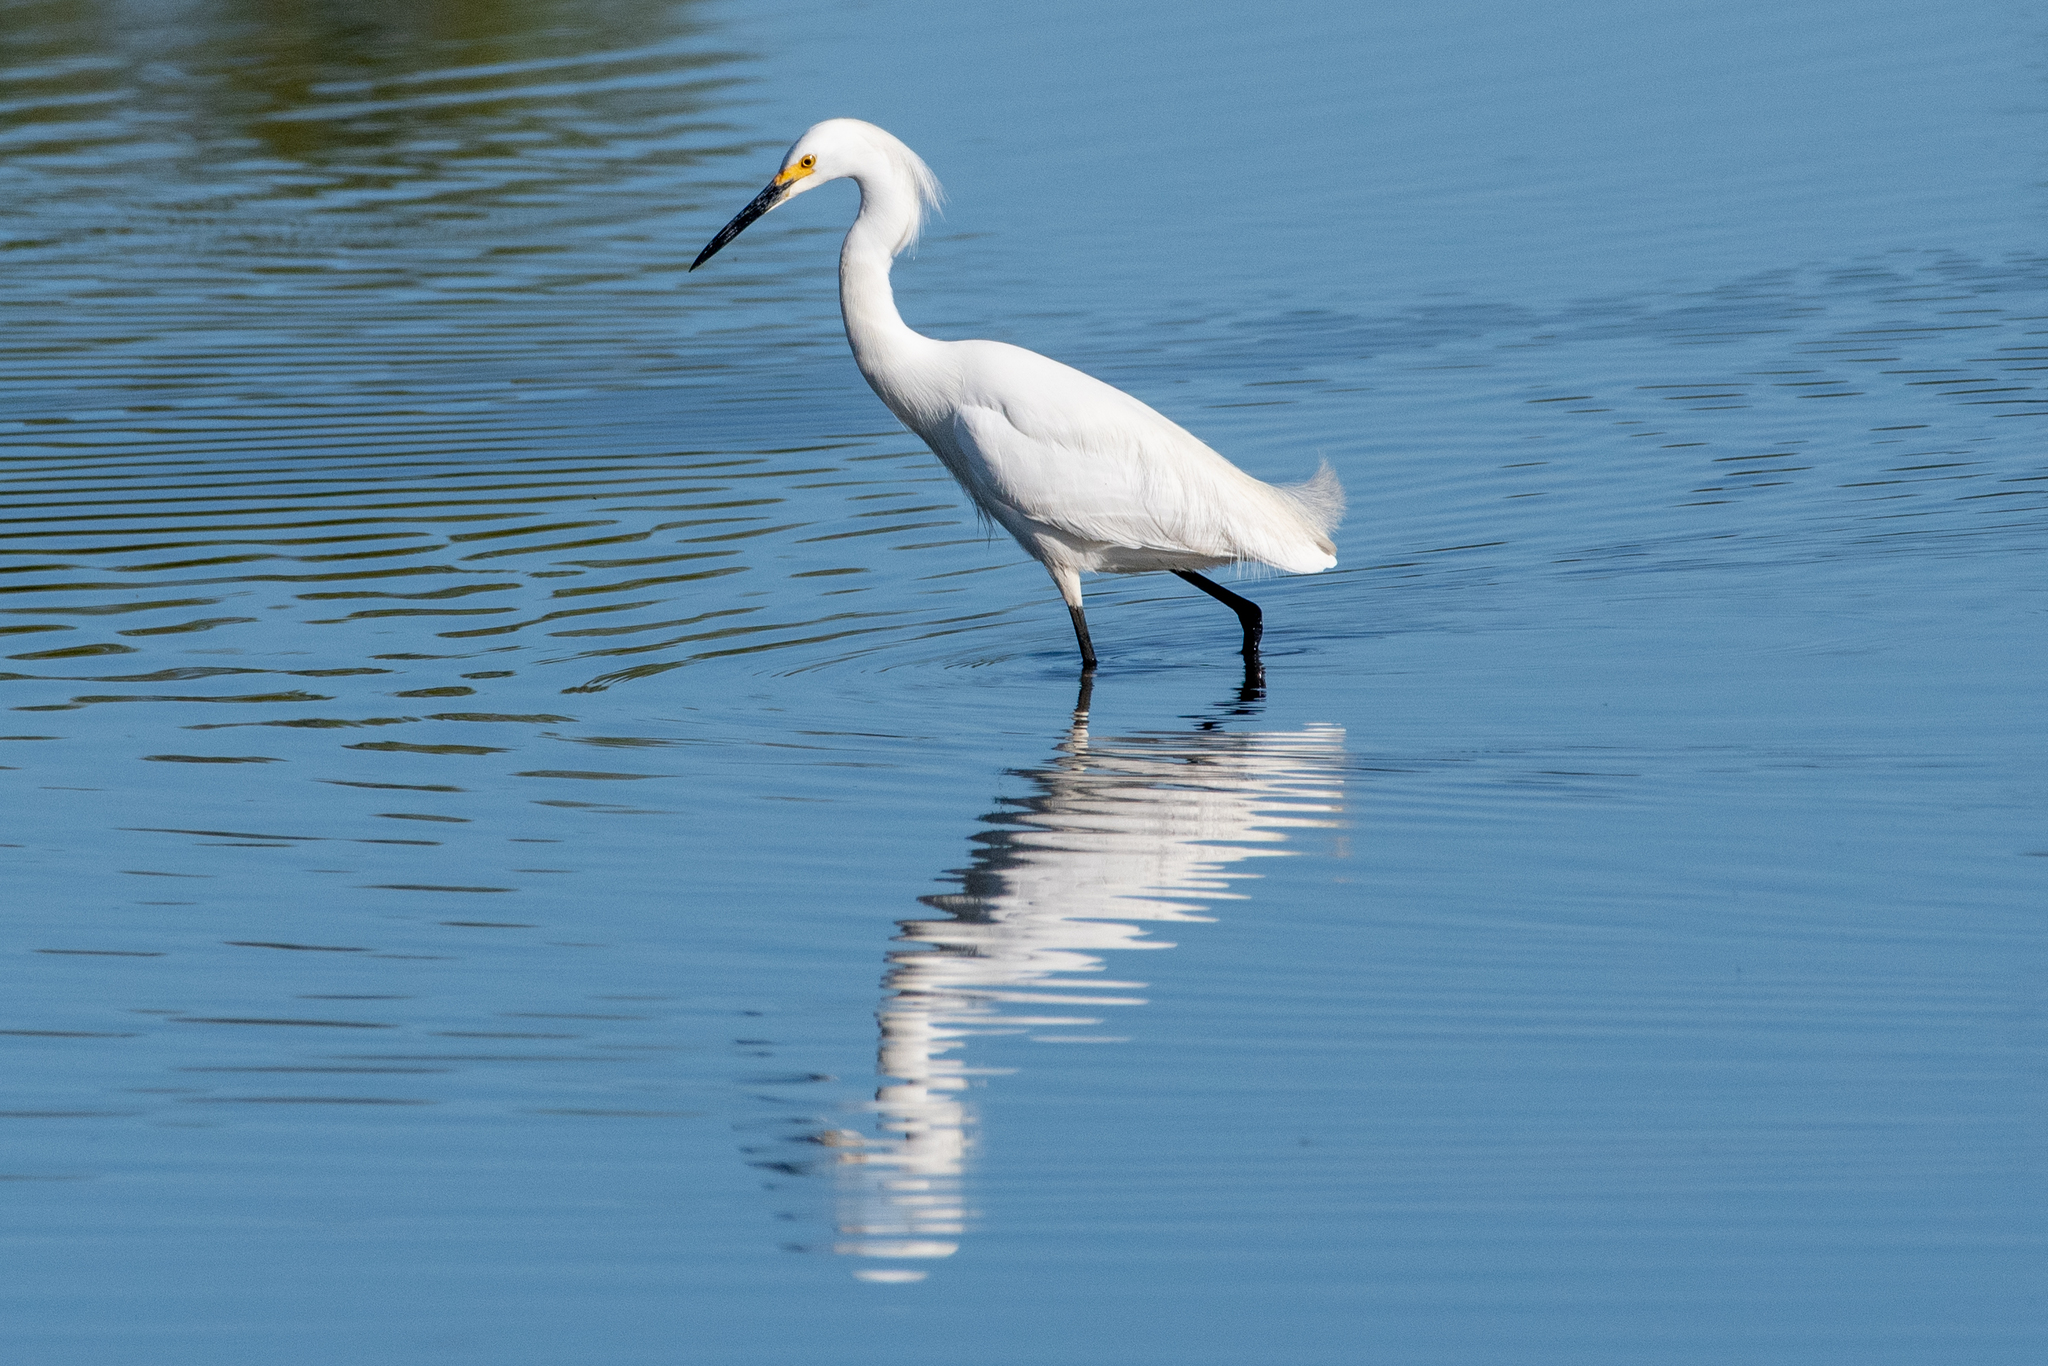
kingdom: Animalia
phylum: Chordata
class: Aves
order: Pelecaniformes
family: Ardeidae
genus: Egretta
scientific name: Egretta thula
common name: Snowy egret
